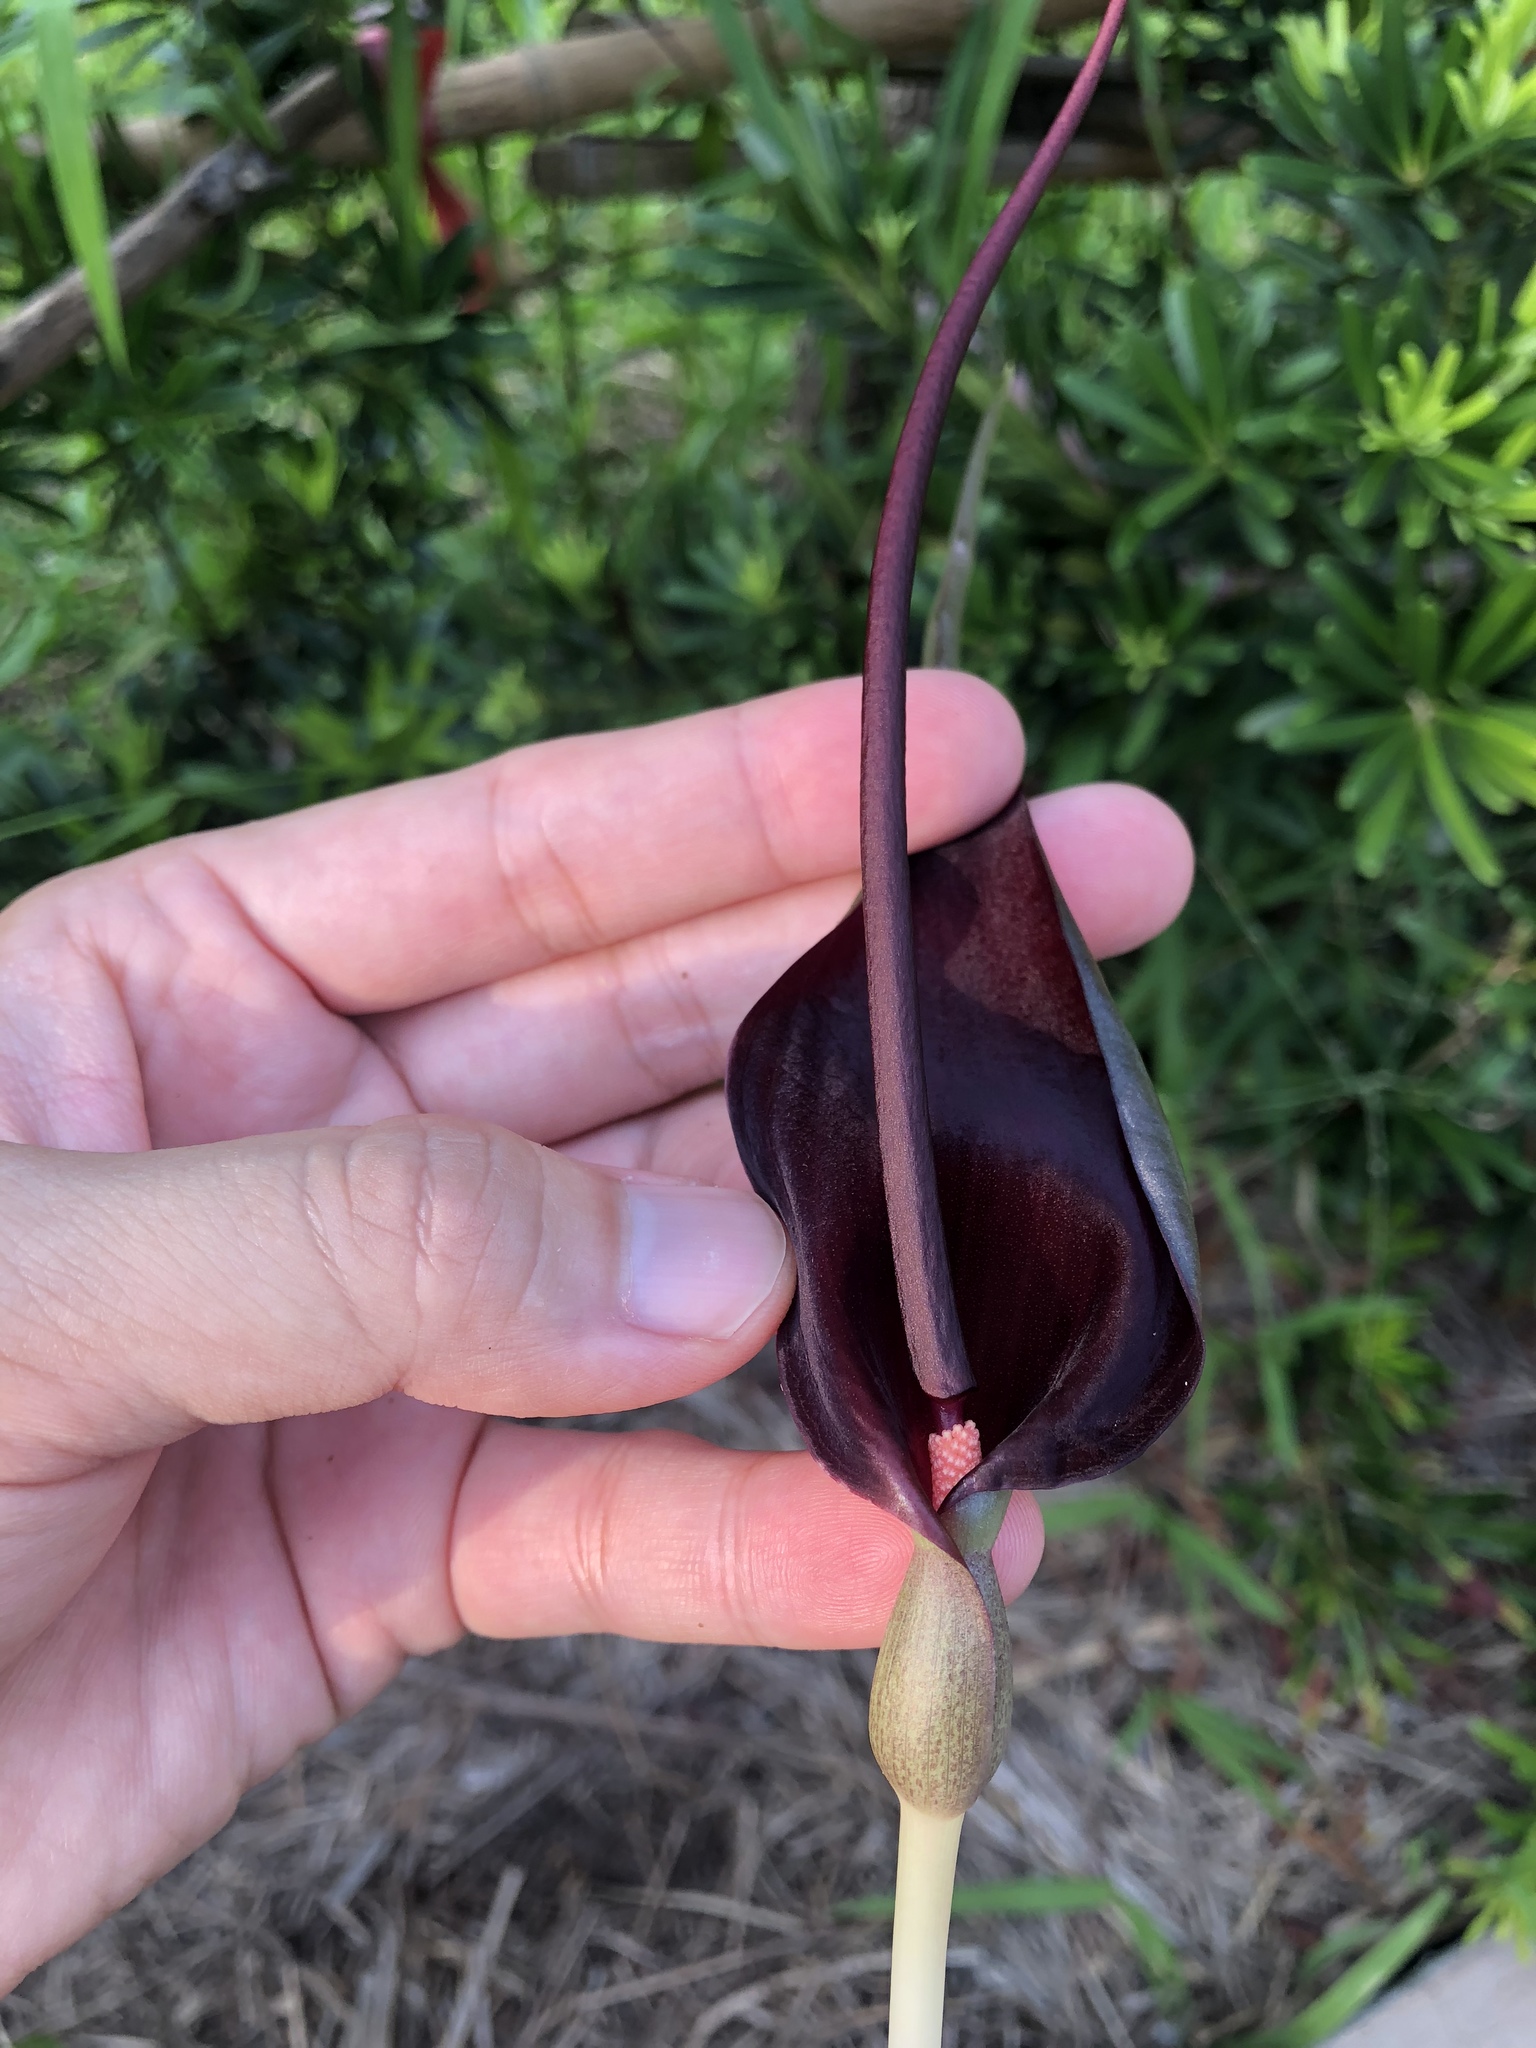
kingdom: Plantae
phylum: Tracheophyta
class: Liliopsida
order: Alismatales
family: Araceae
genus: Typhonium
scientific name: Typhonium roxburghii
